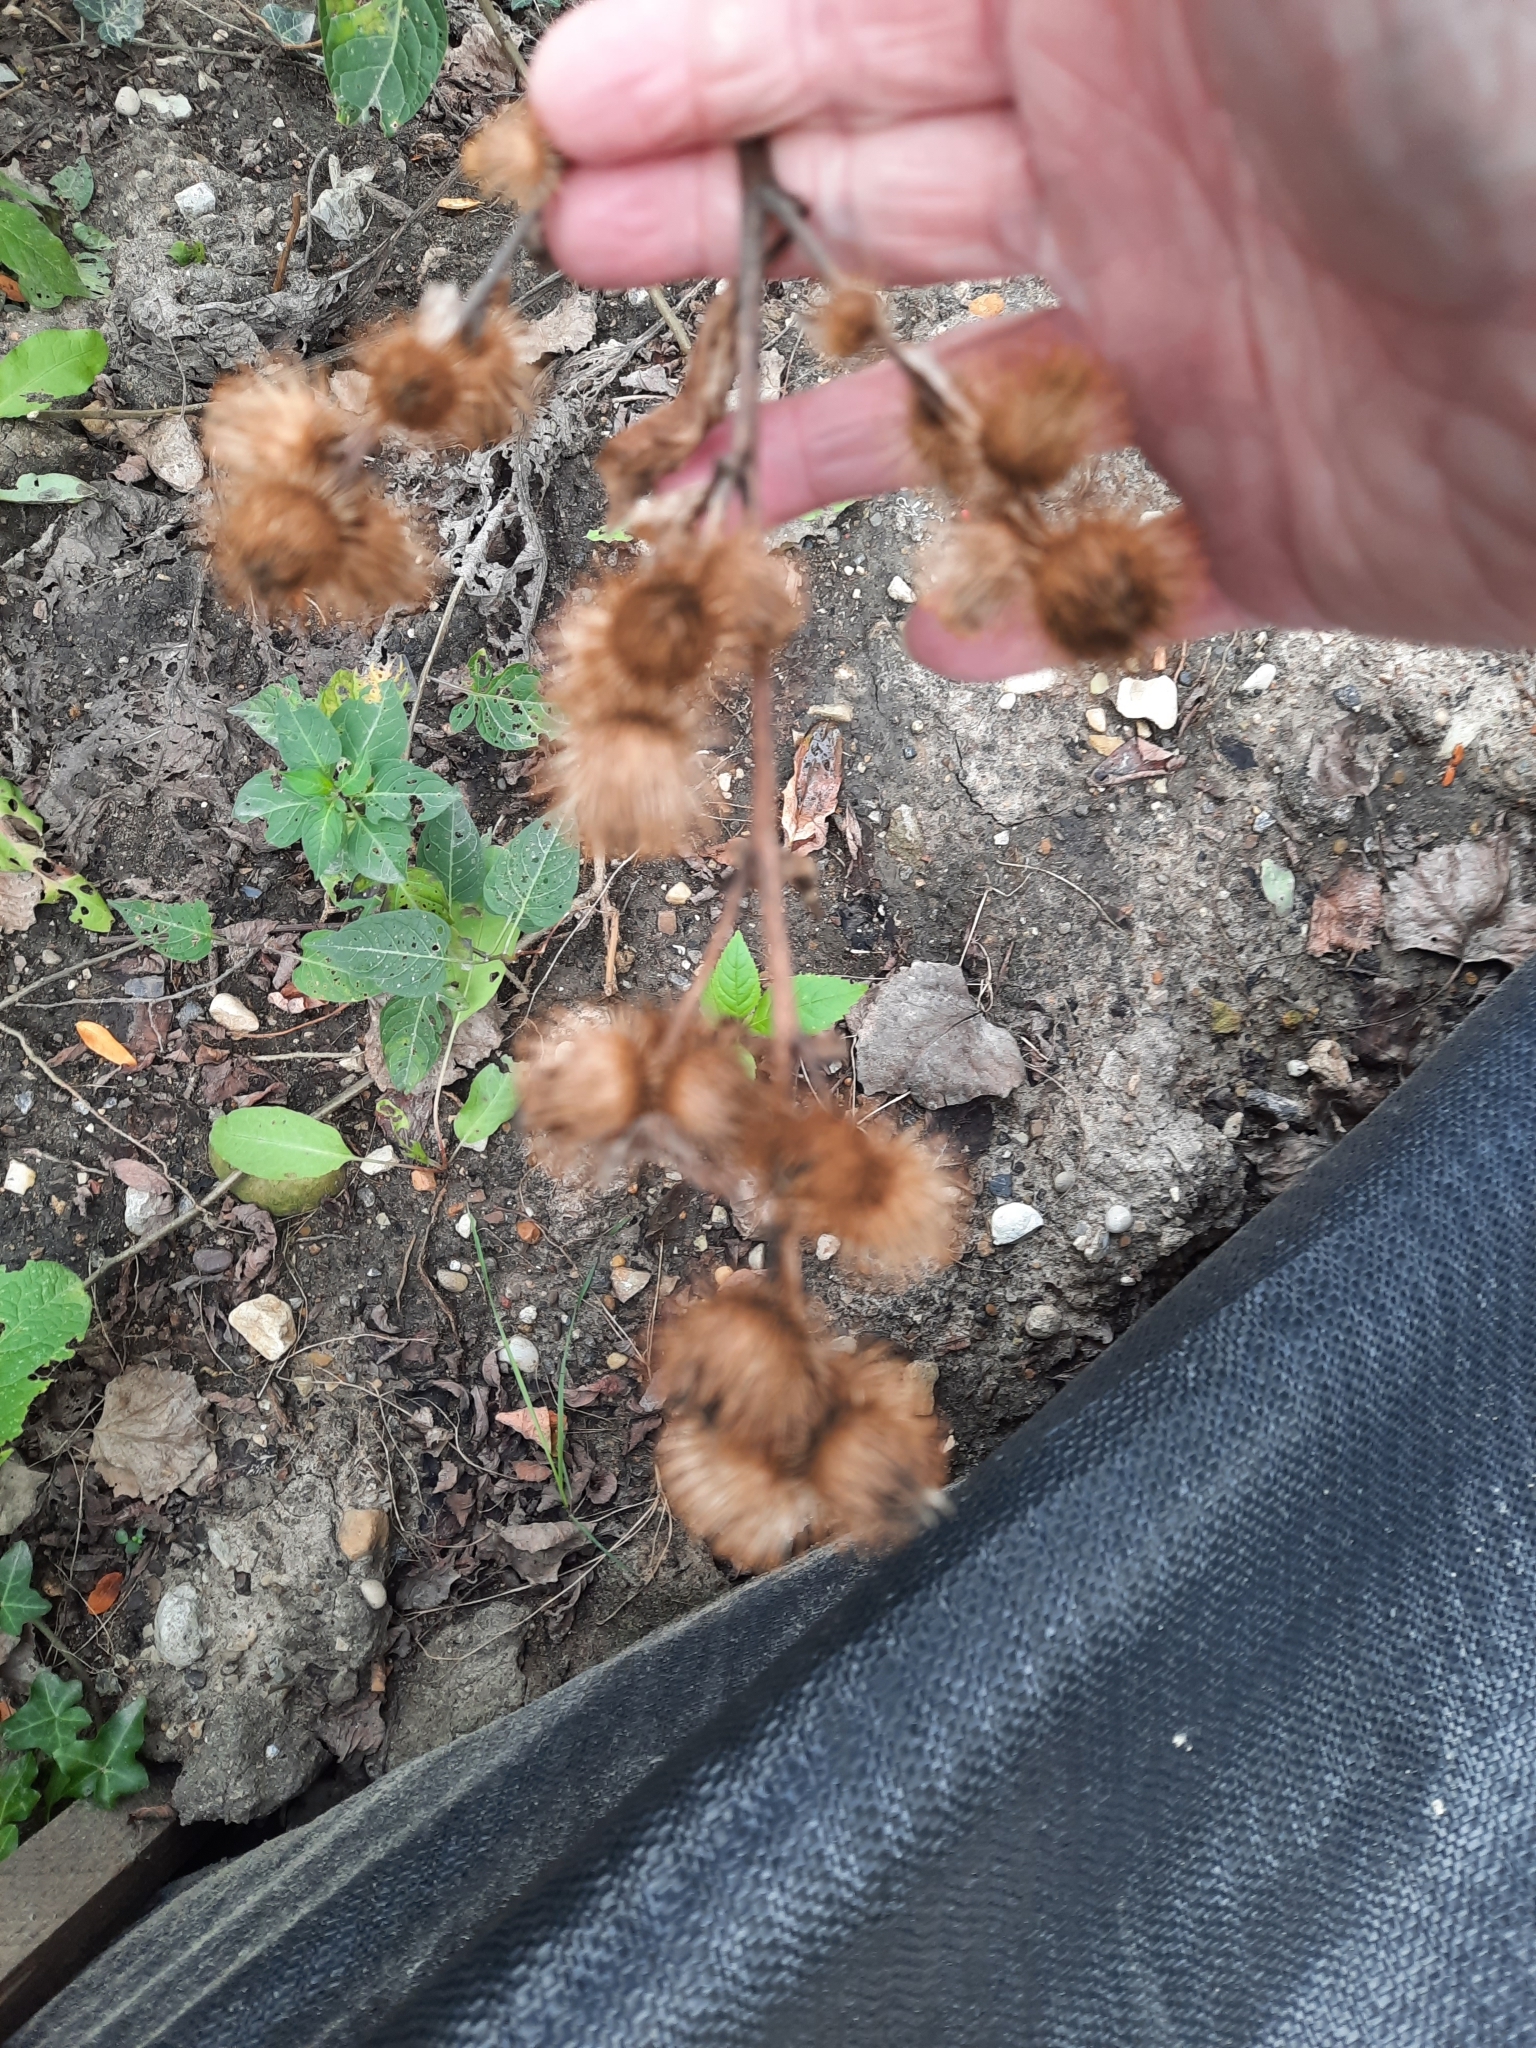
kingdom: Plantae
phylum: Tracheophyta
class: Magnoliopsida
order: Asterales
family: Asteraceae
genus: Arctium
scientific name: Arctium minus
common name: Lesser burdock
